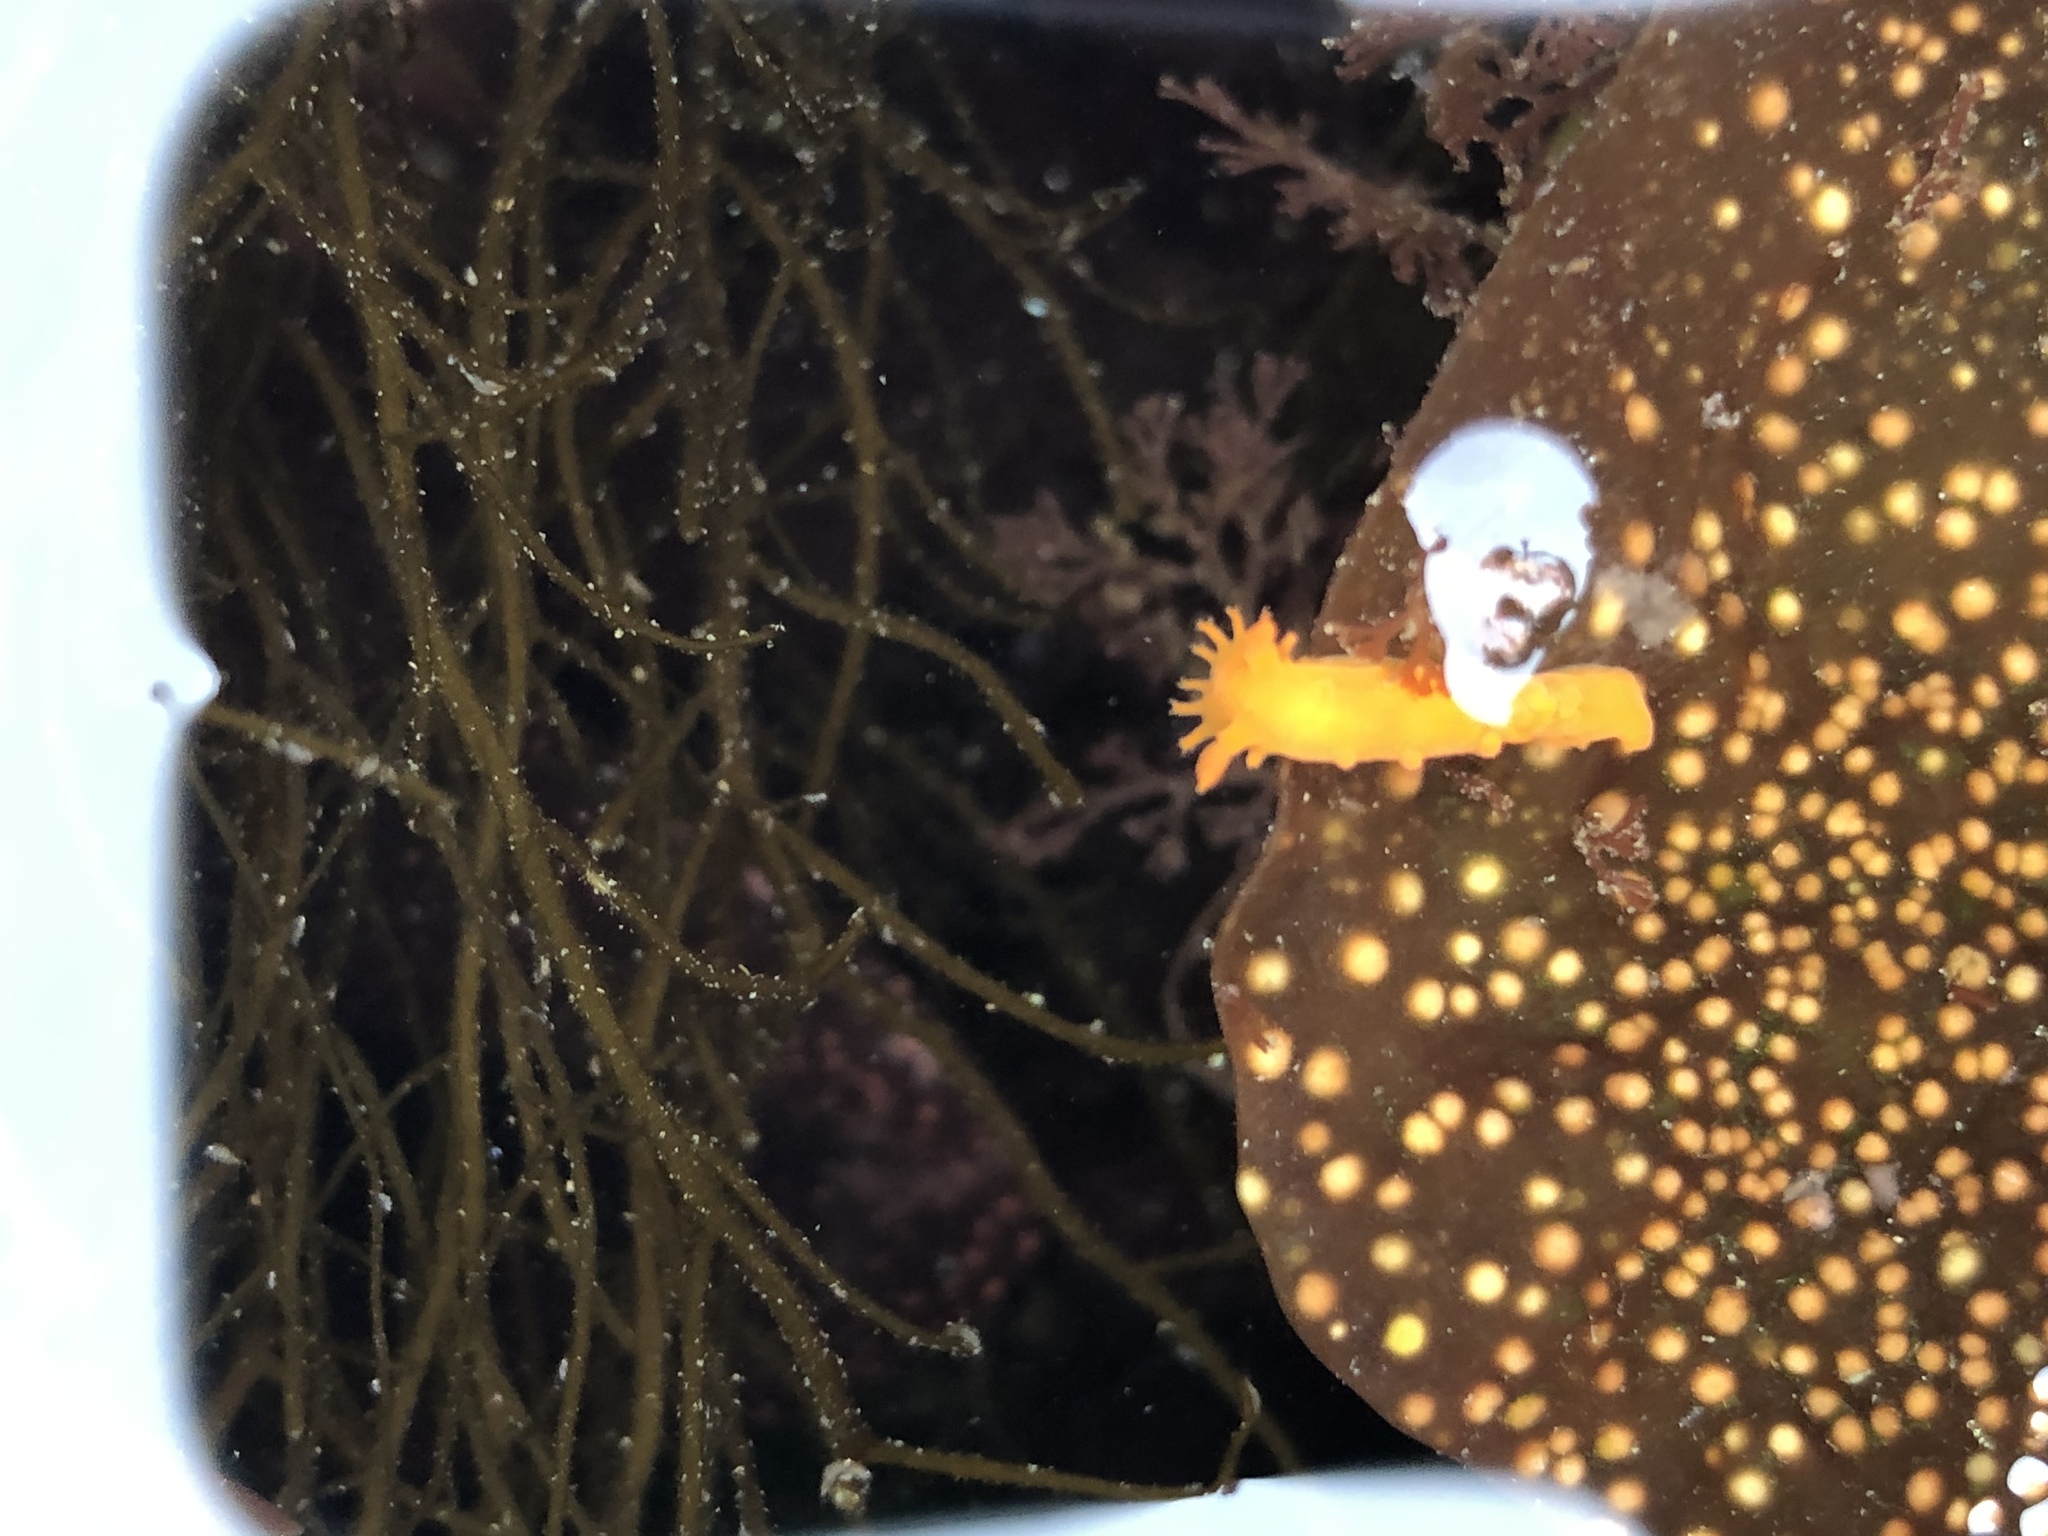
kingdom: Animalia
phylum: Mollusca
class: Gastropoda
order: Nudibranchia
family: Polyceridae
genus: Triopha
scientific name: Triopha maculata
